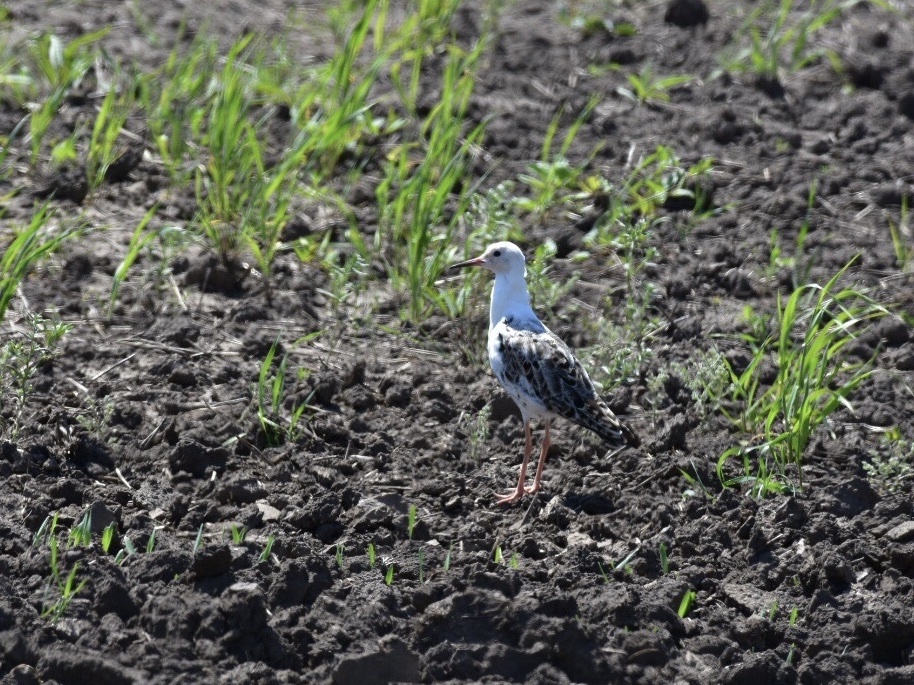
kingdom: Animalia
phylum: Chordata
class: Aves
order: Charadriiformes
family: Scolopacidae
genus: Calidris
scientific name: Calidris pugnax
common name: Ruff
